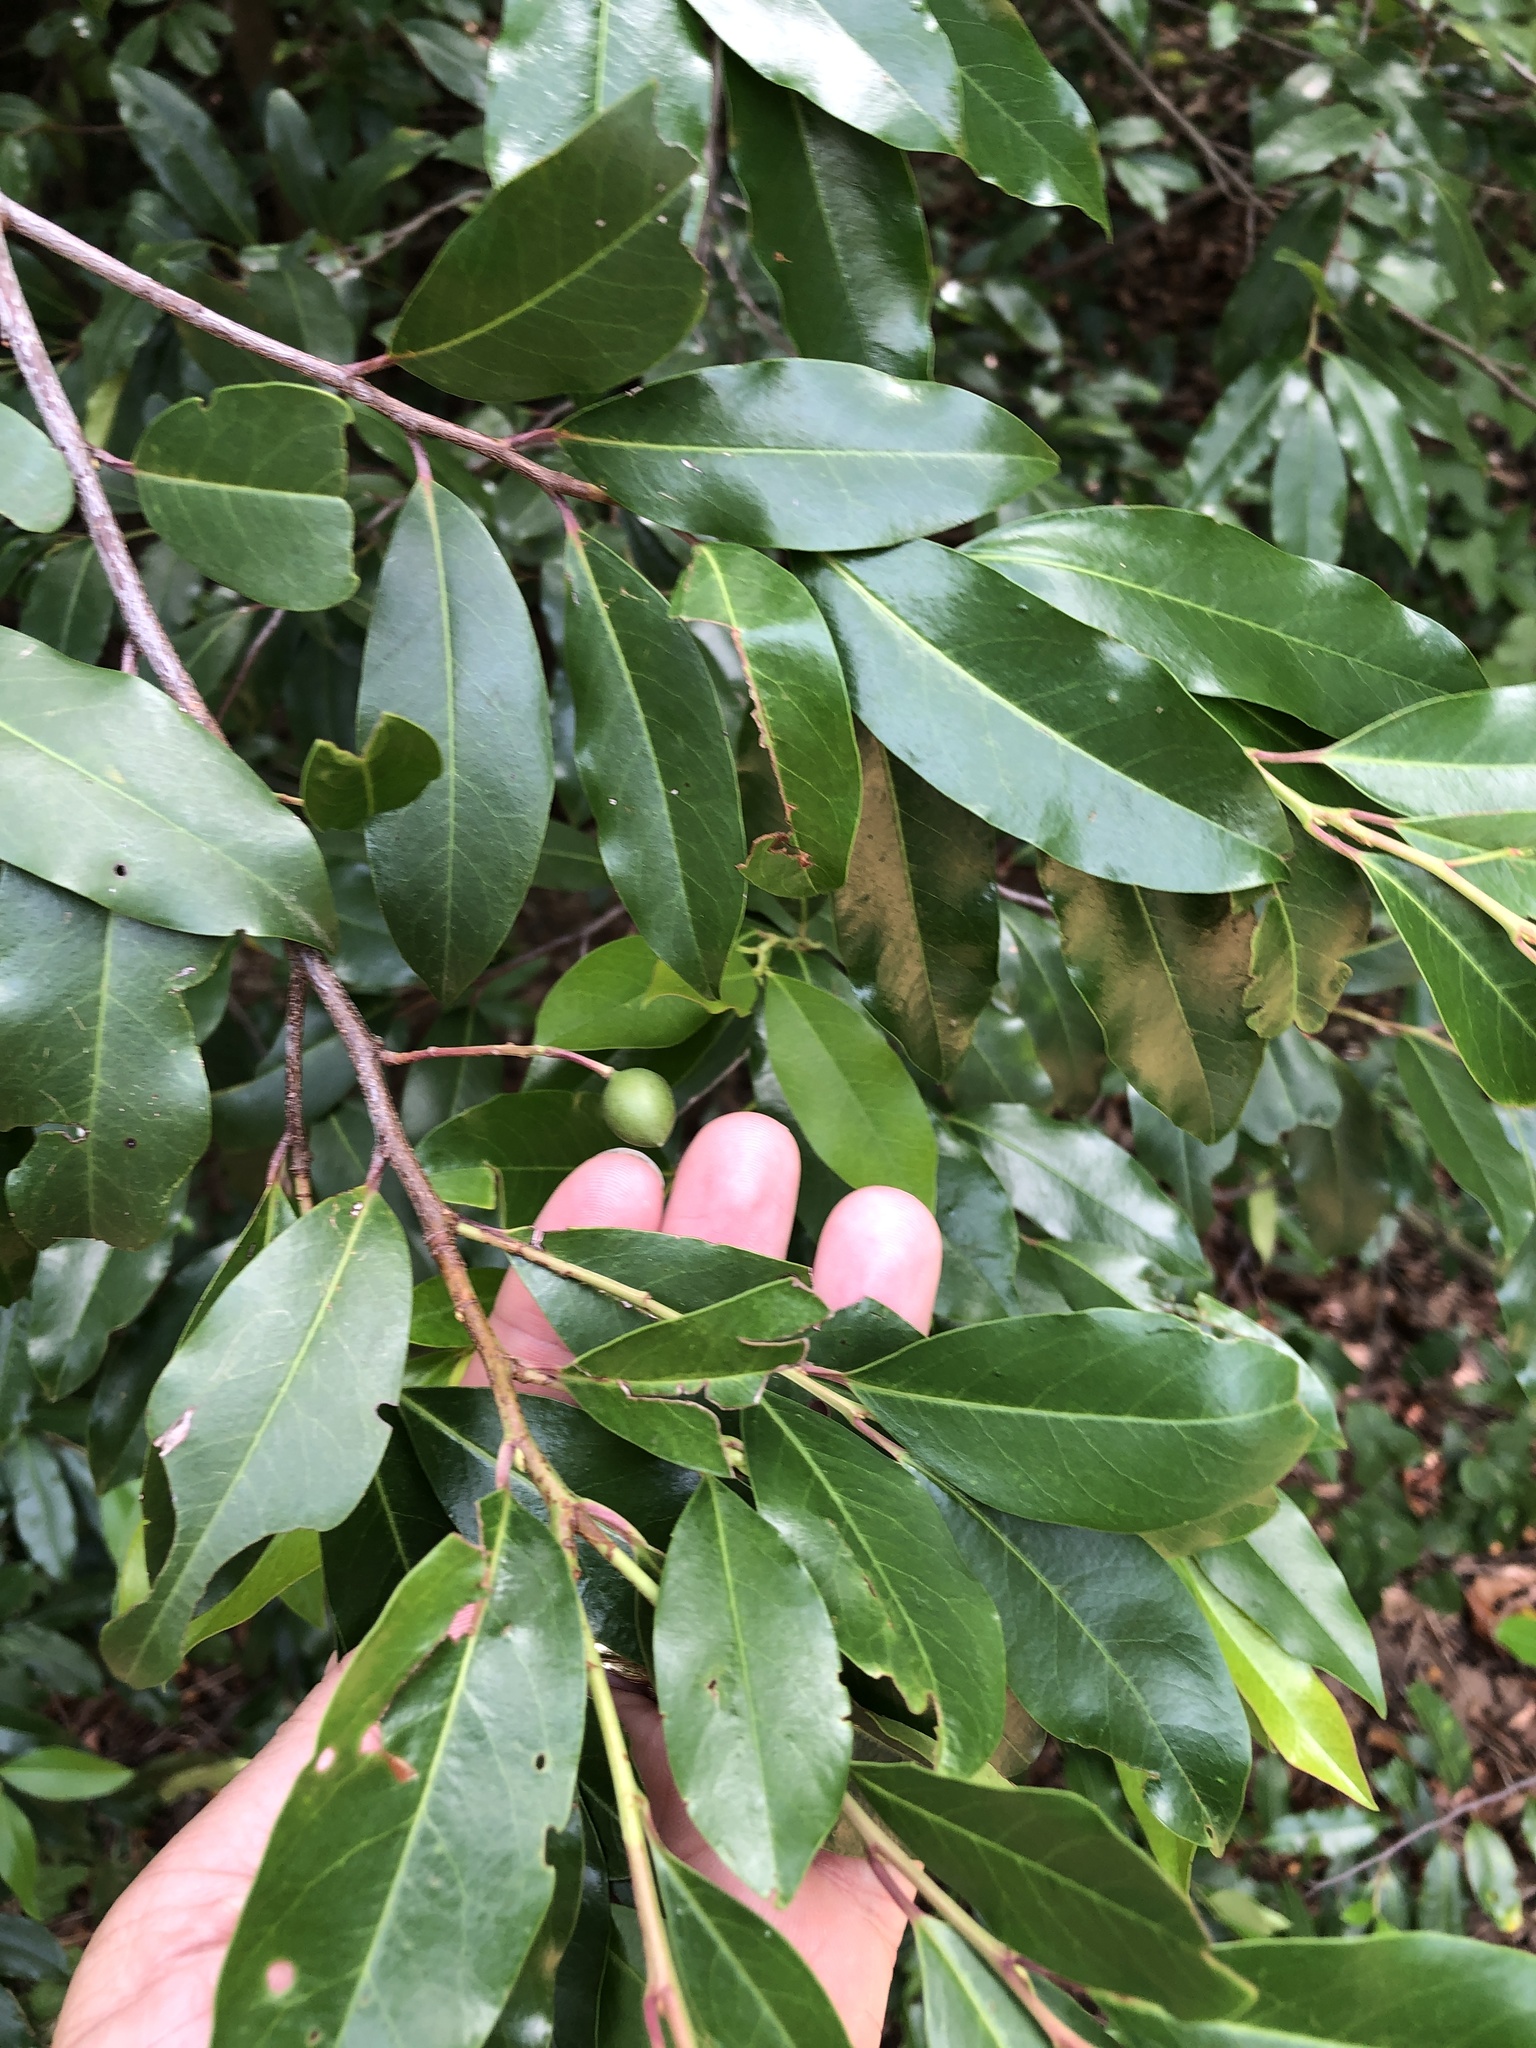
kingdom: Plantae
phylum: Tracheophyta
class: Magnoliopsida
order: Rosales
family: Rosaceae
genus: Prunus
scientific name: Prunus caroliniana
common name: Carolina laurel cherry
